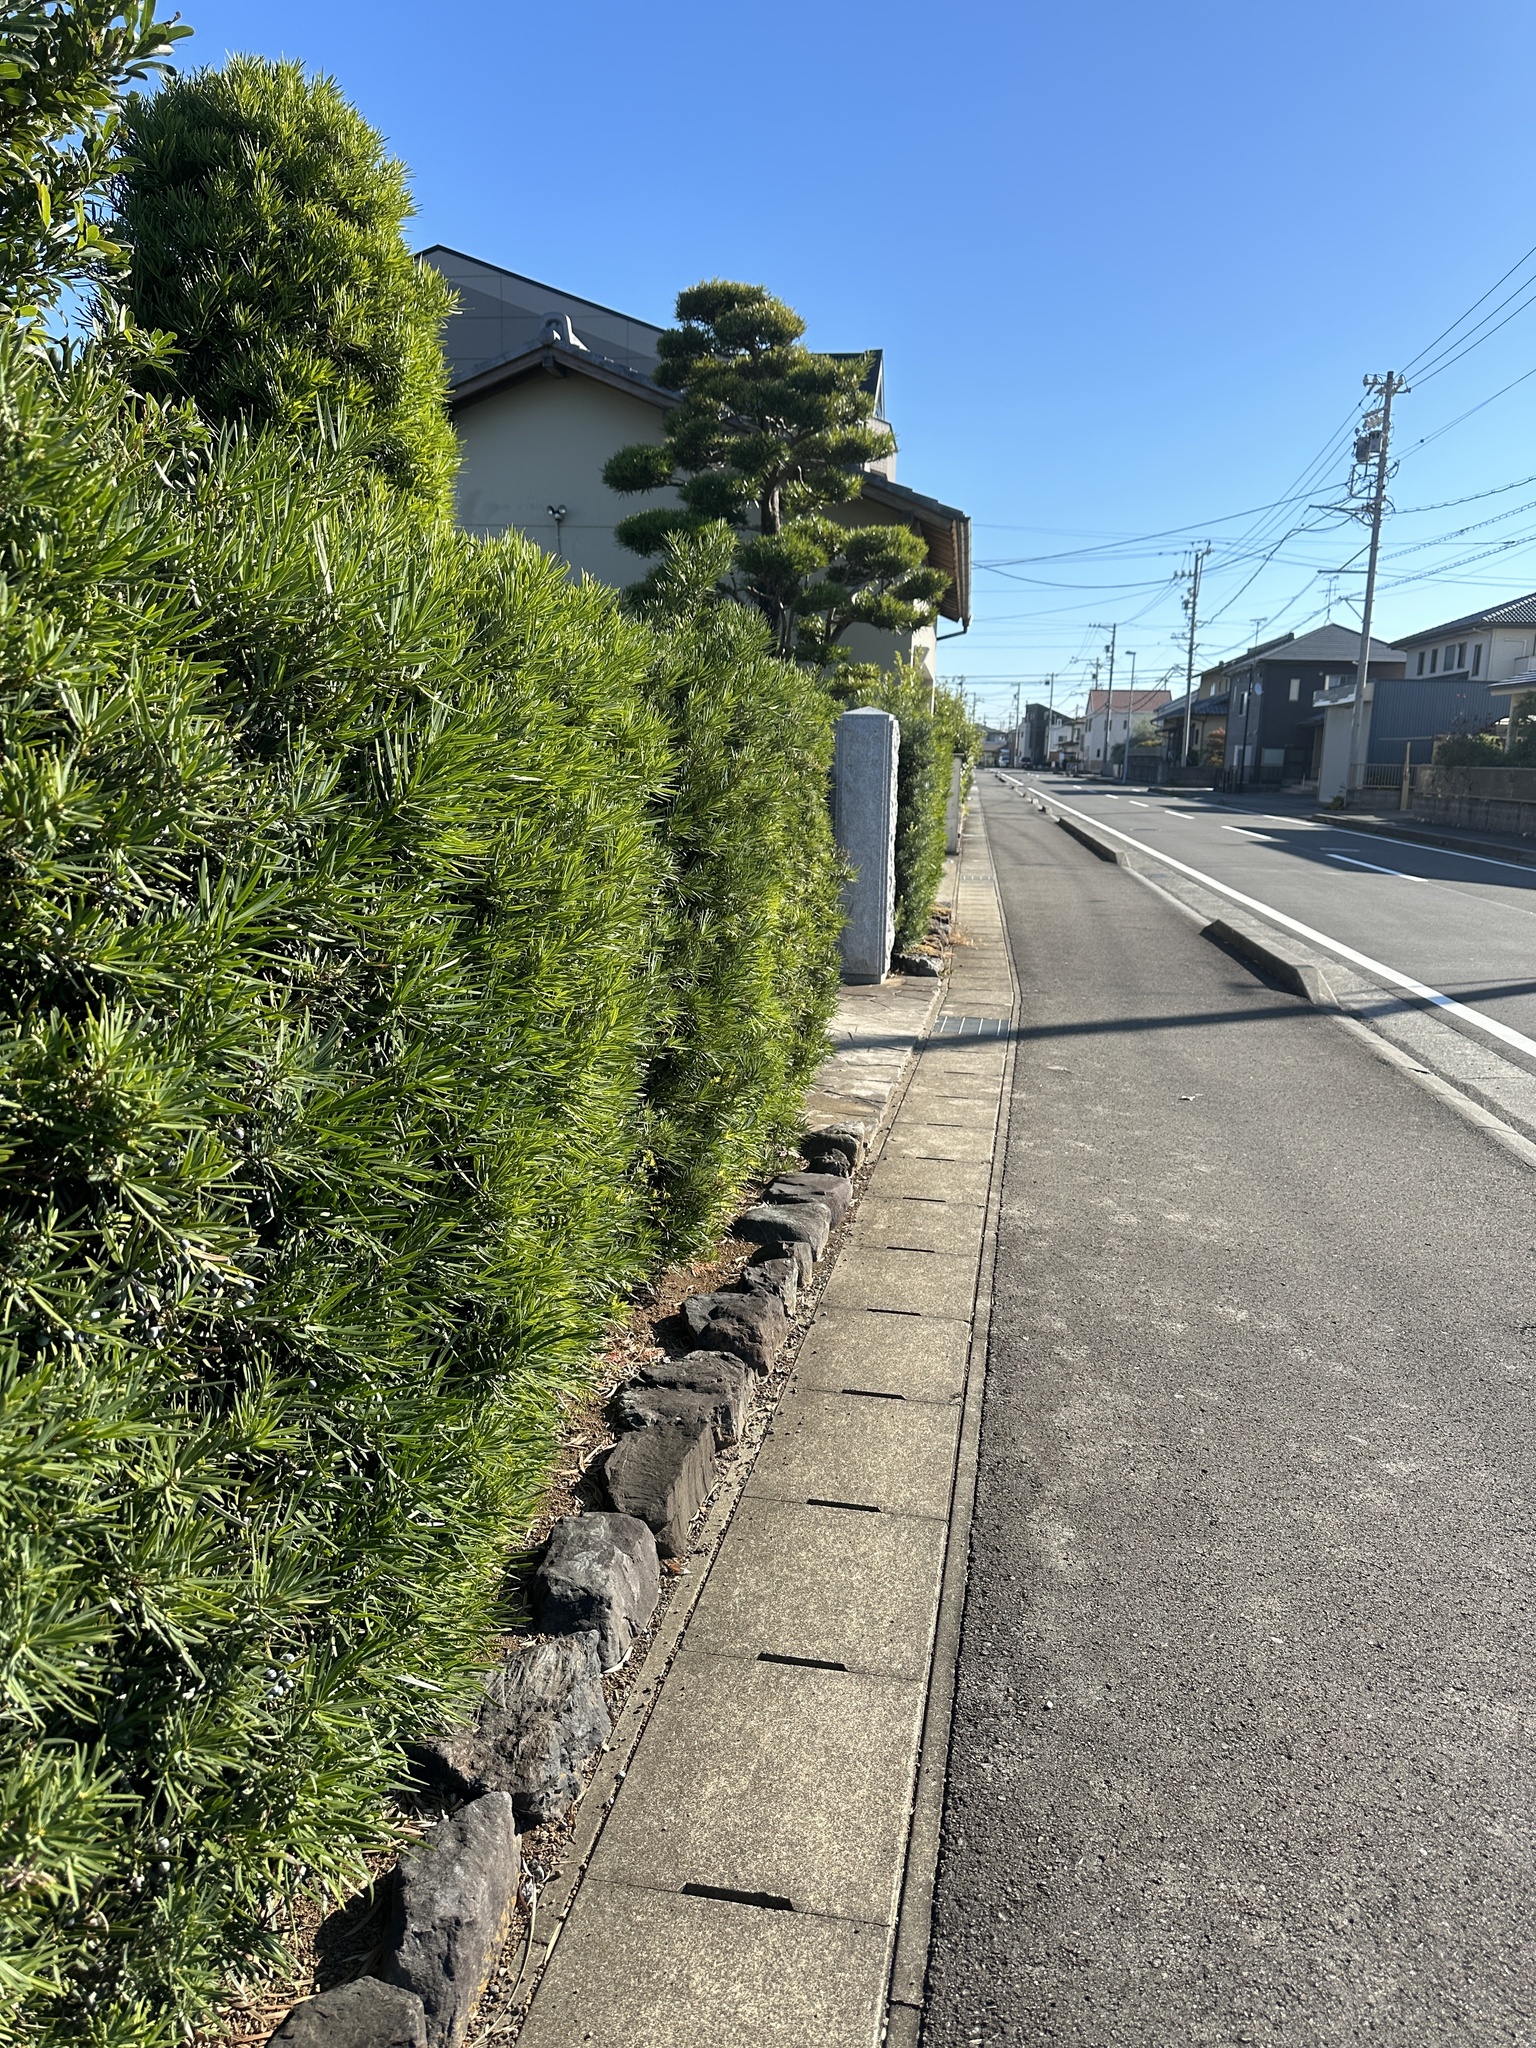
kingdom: Animalia
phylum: Arthropoda
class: Insecta
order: Orthoptera
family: Mogoplistidae
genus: Ornebius
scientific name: Ornebius kanetataki
